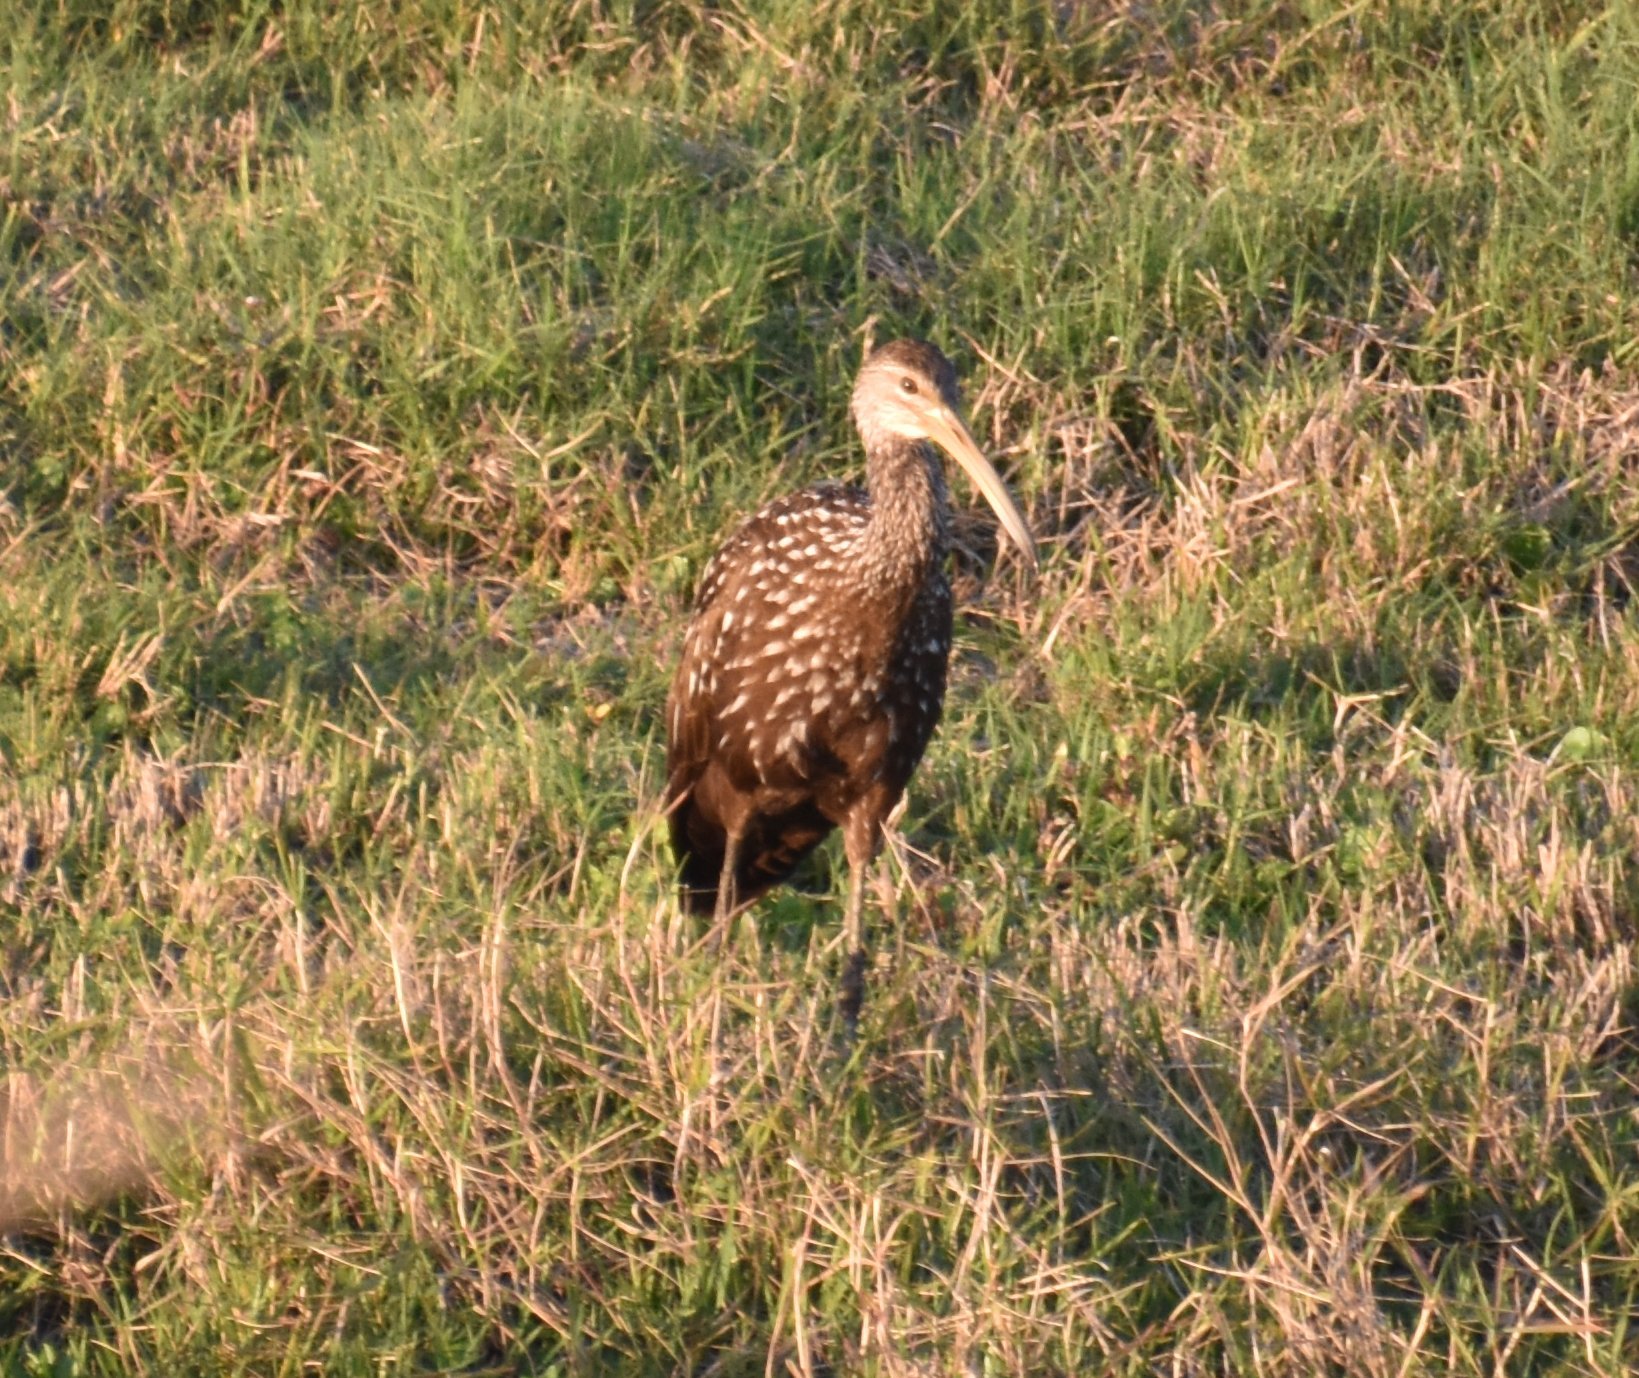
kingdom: Animalia
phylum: Chordata
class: Aves
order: Gruiformes
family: Aramidae
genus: Aramus
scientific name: Aramus guarauna
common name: Limpkin
